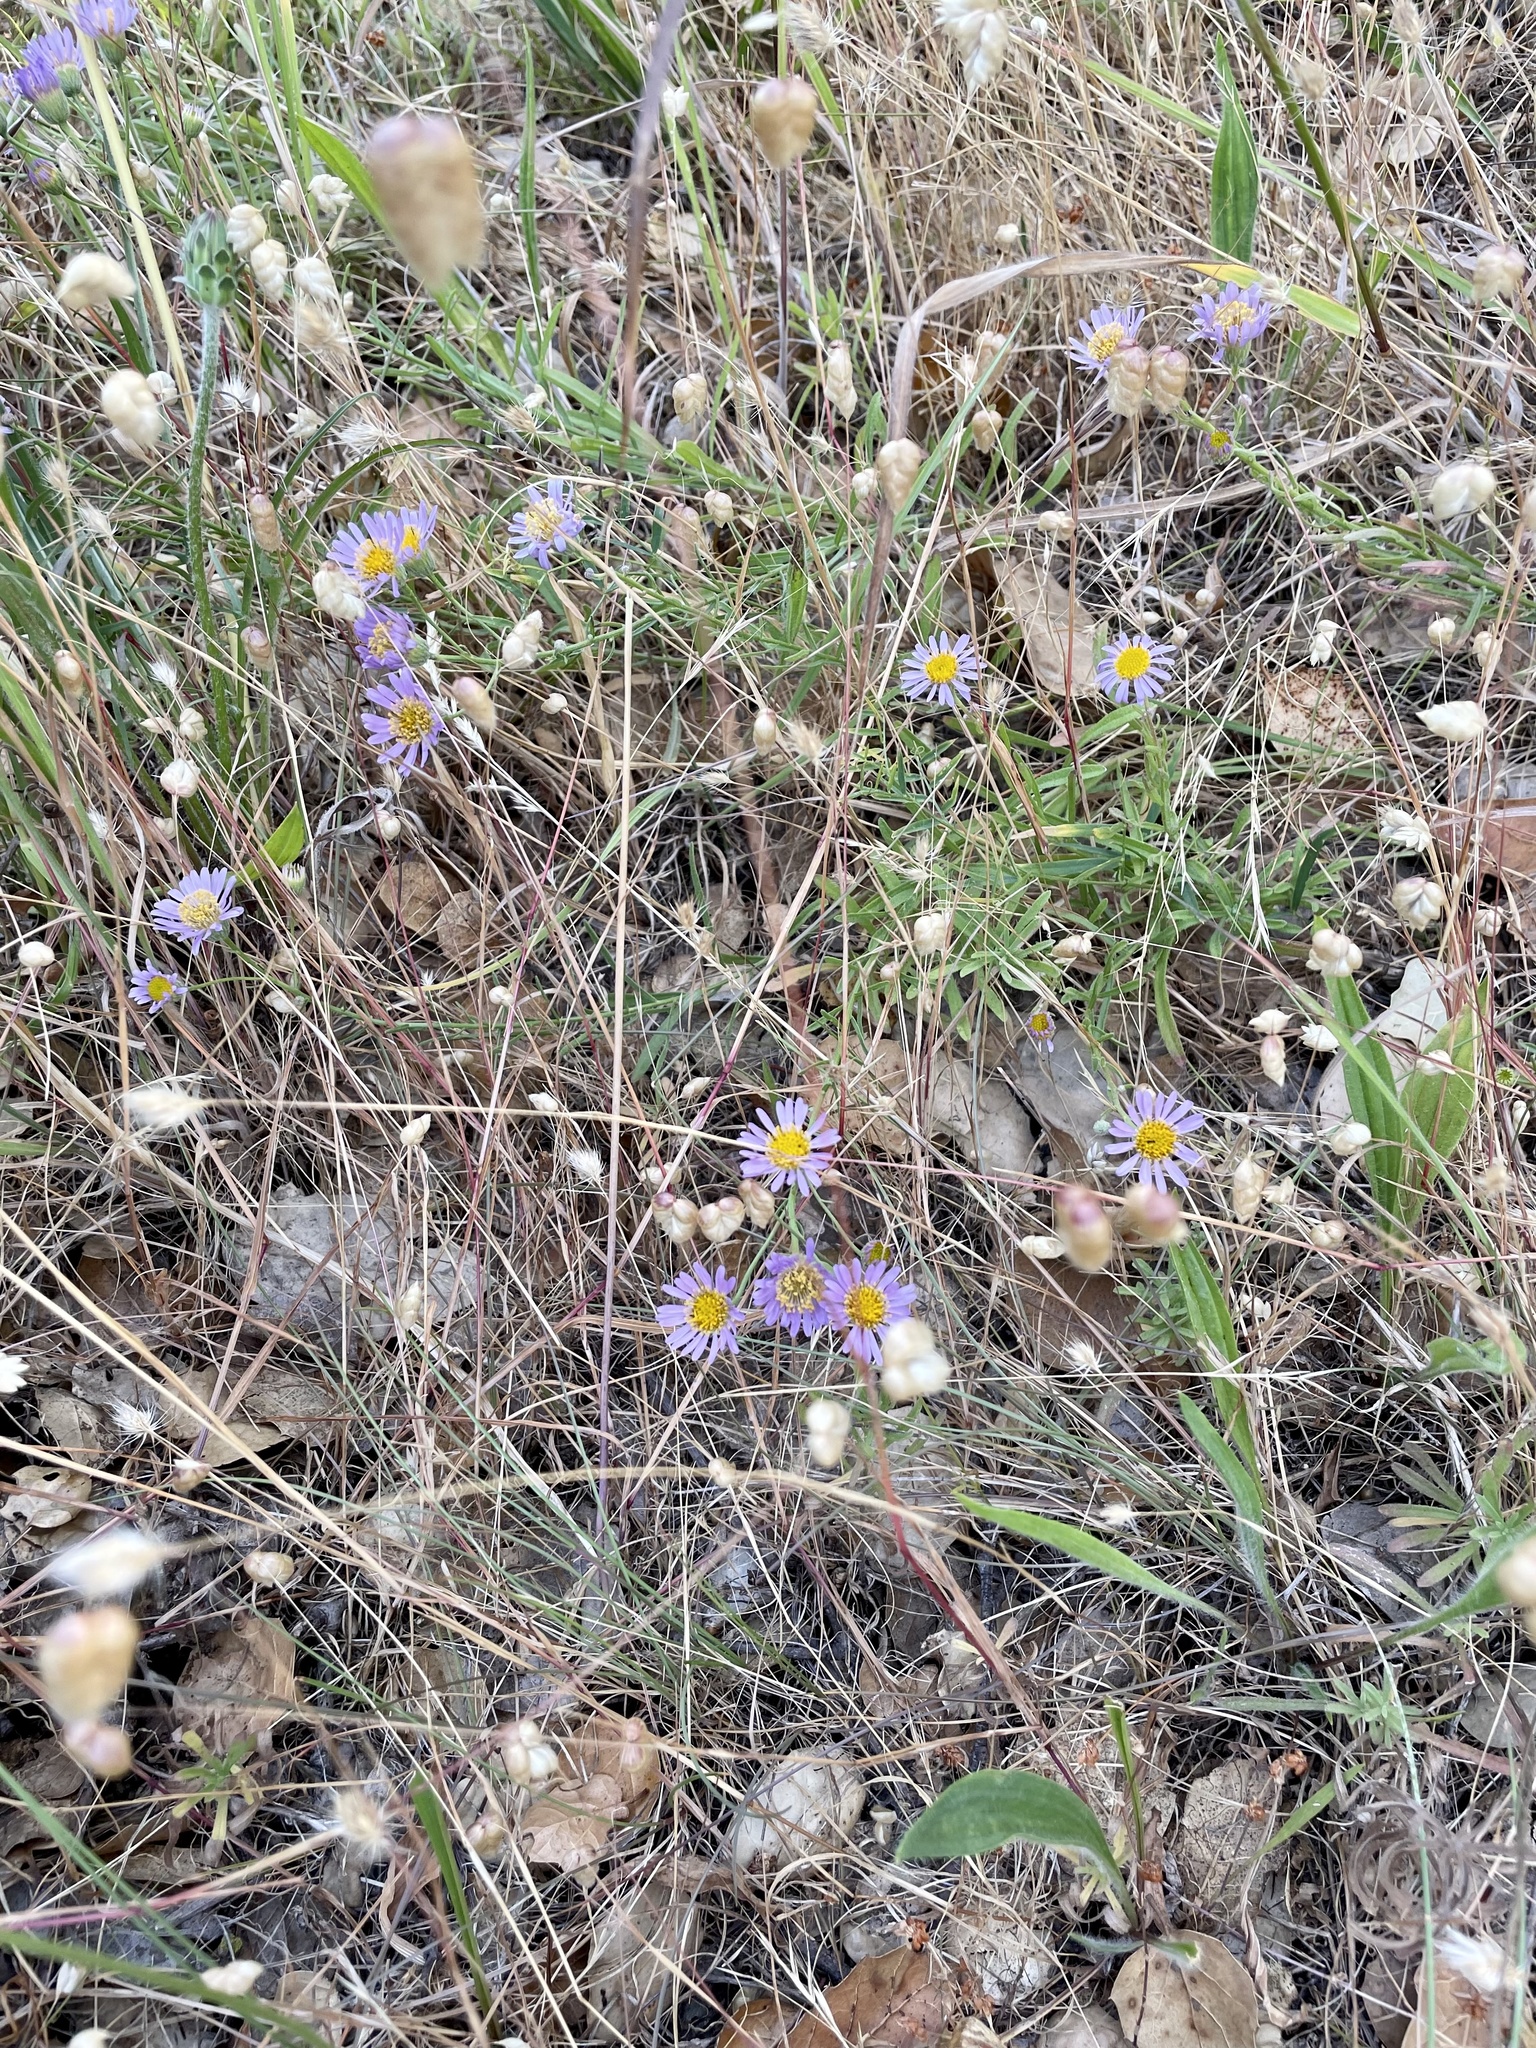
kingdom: Plantae
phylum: Tracheophyta
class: Magnoliopsida
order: Asterales
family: Asteraceae
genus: Erigeron
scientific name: Erigeron foliosus
